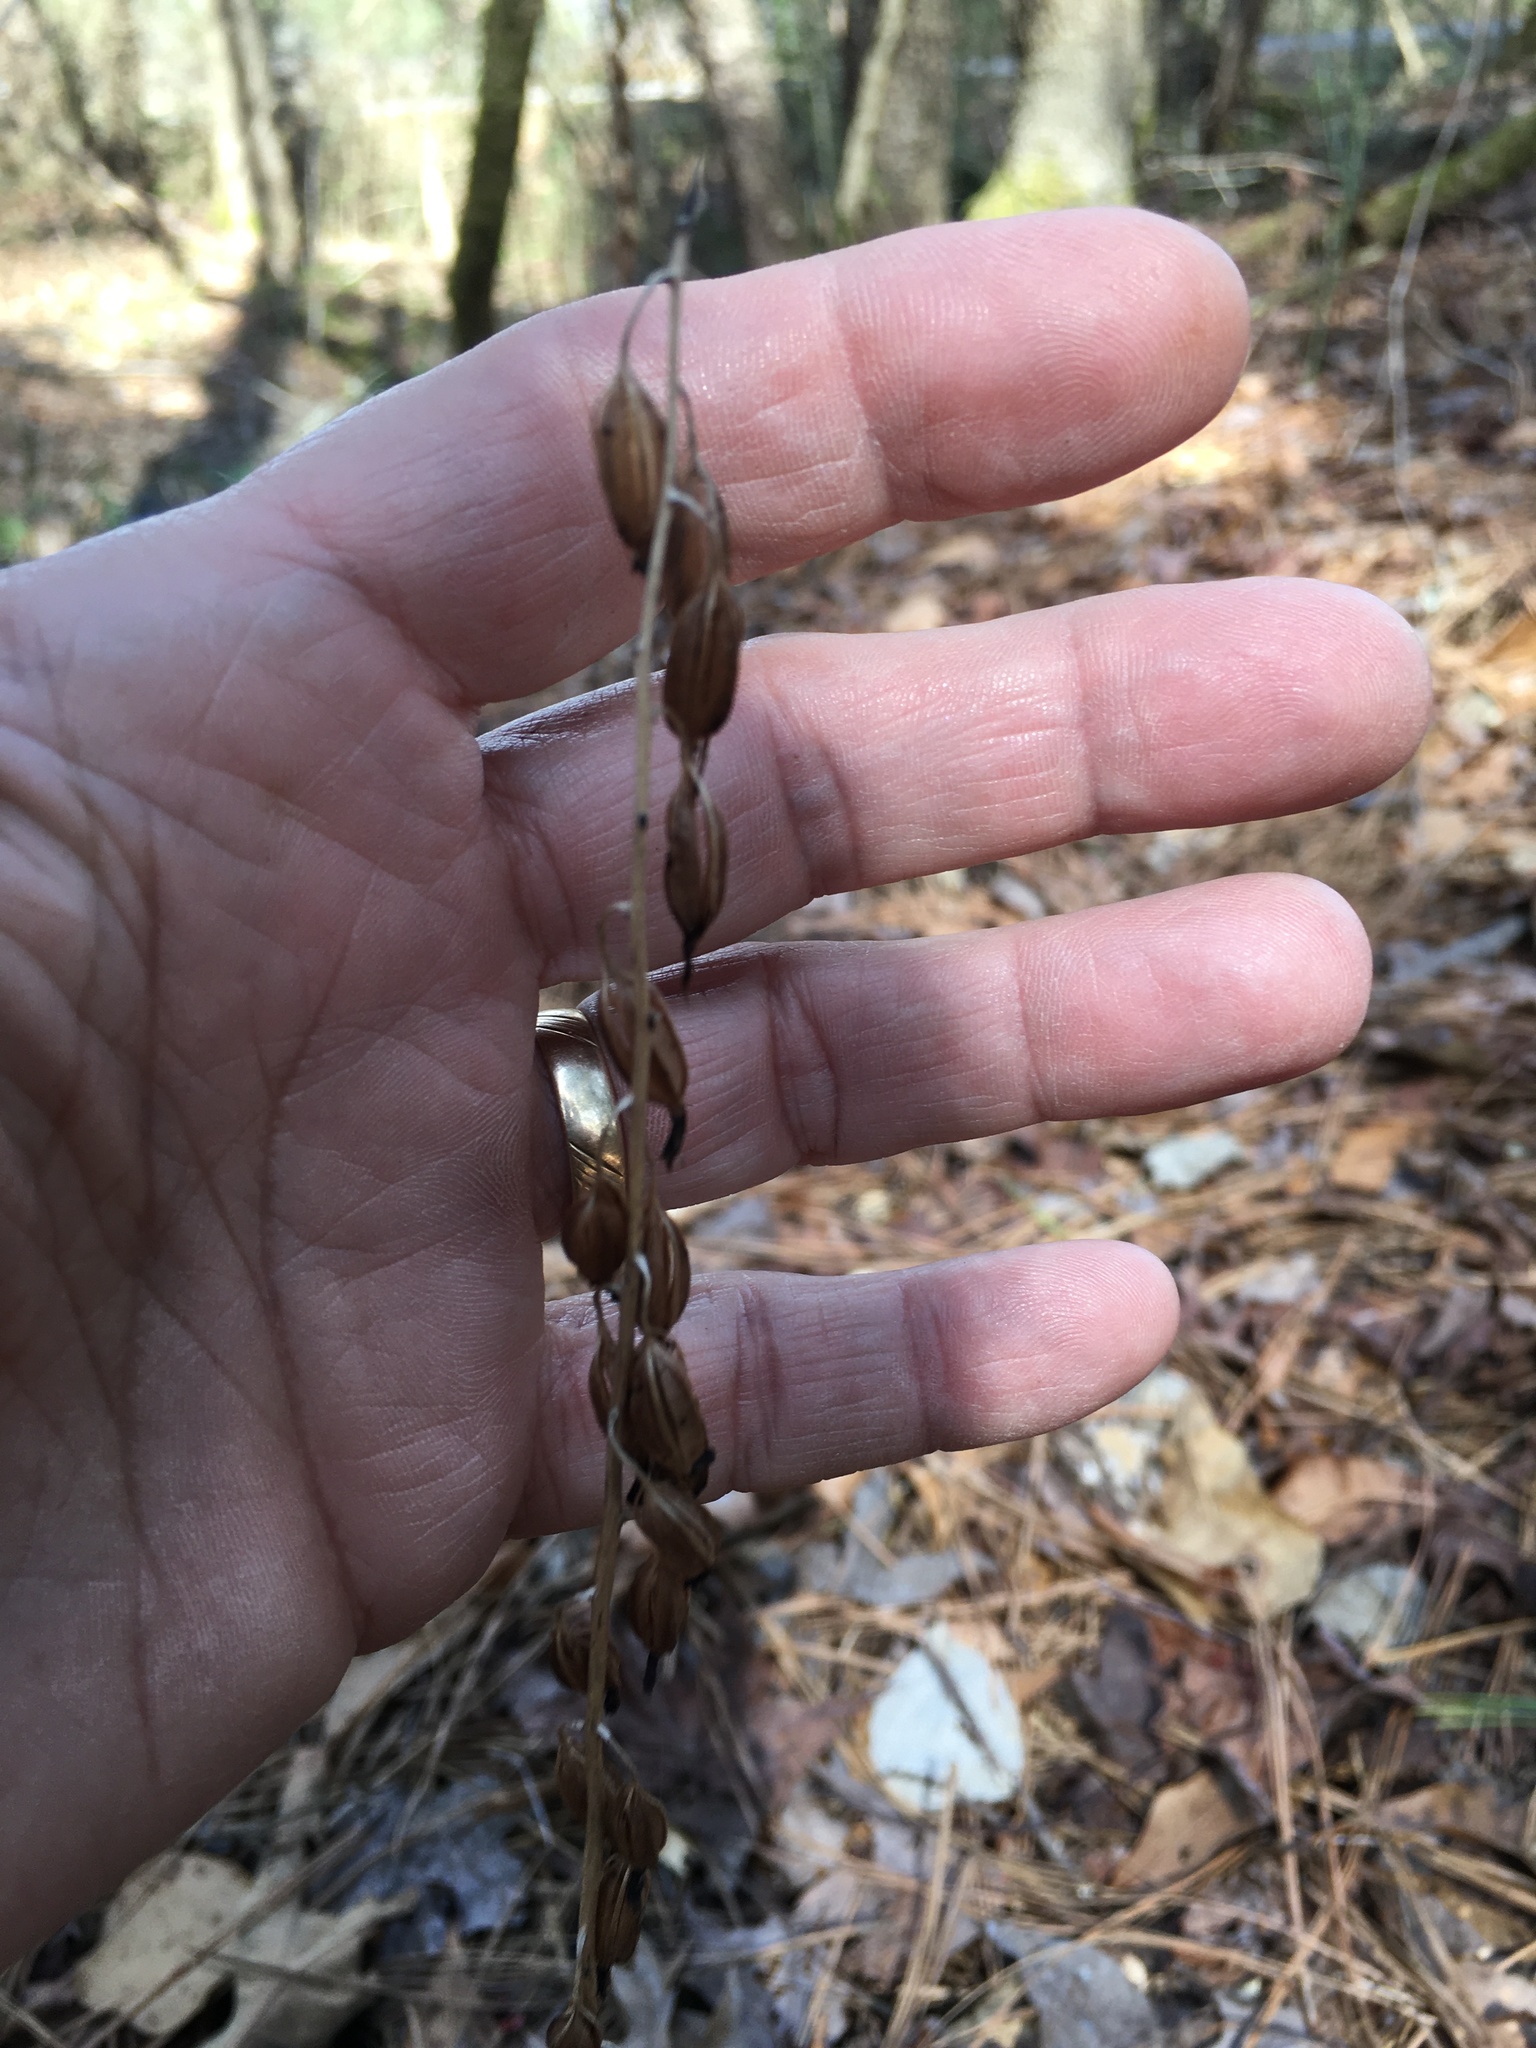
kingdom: Plantae
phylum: Tracheophyta
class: Liliopsida
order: Asparagales
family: Orchidaceae
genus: Tipularia
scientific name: Tipularia discolor
